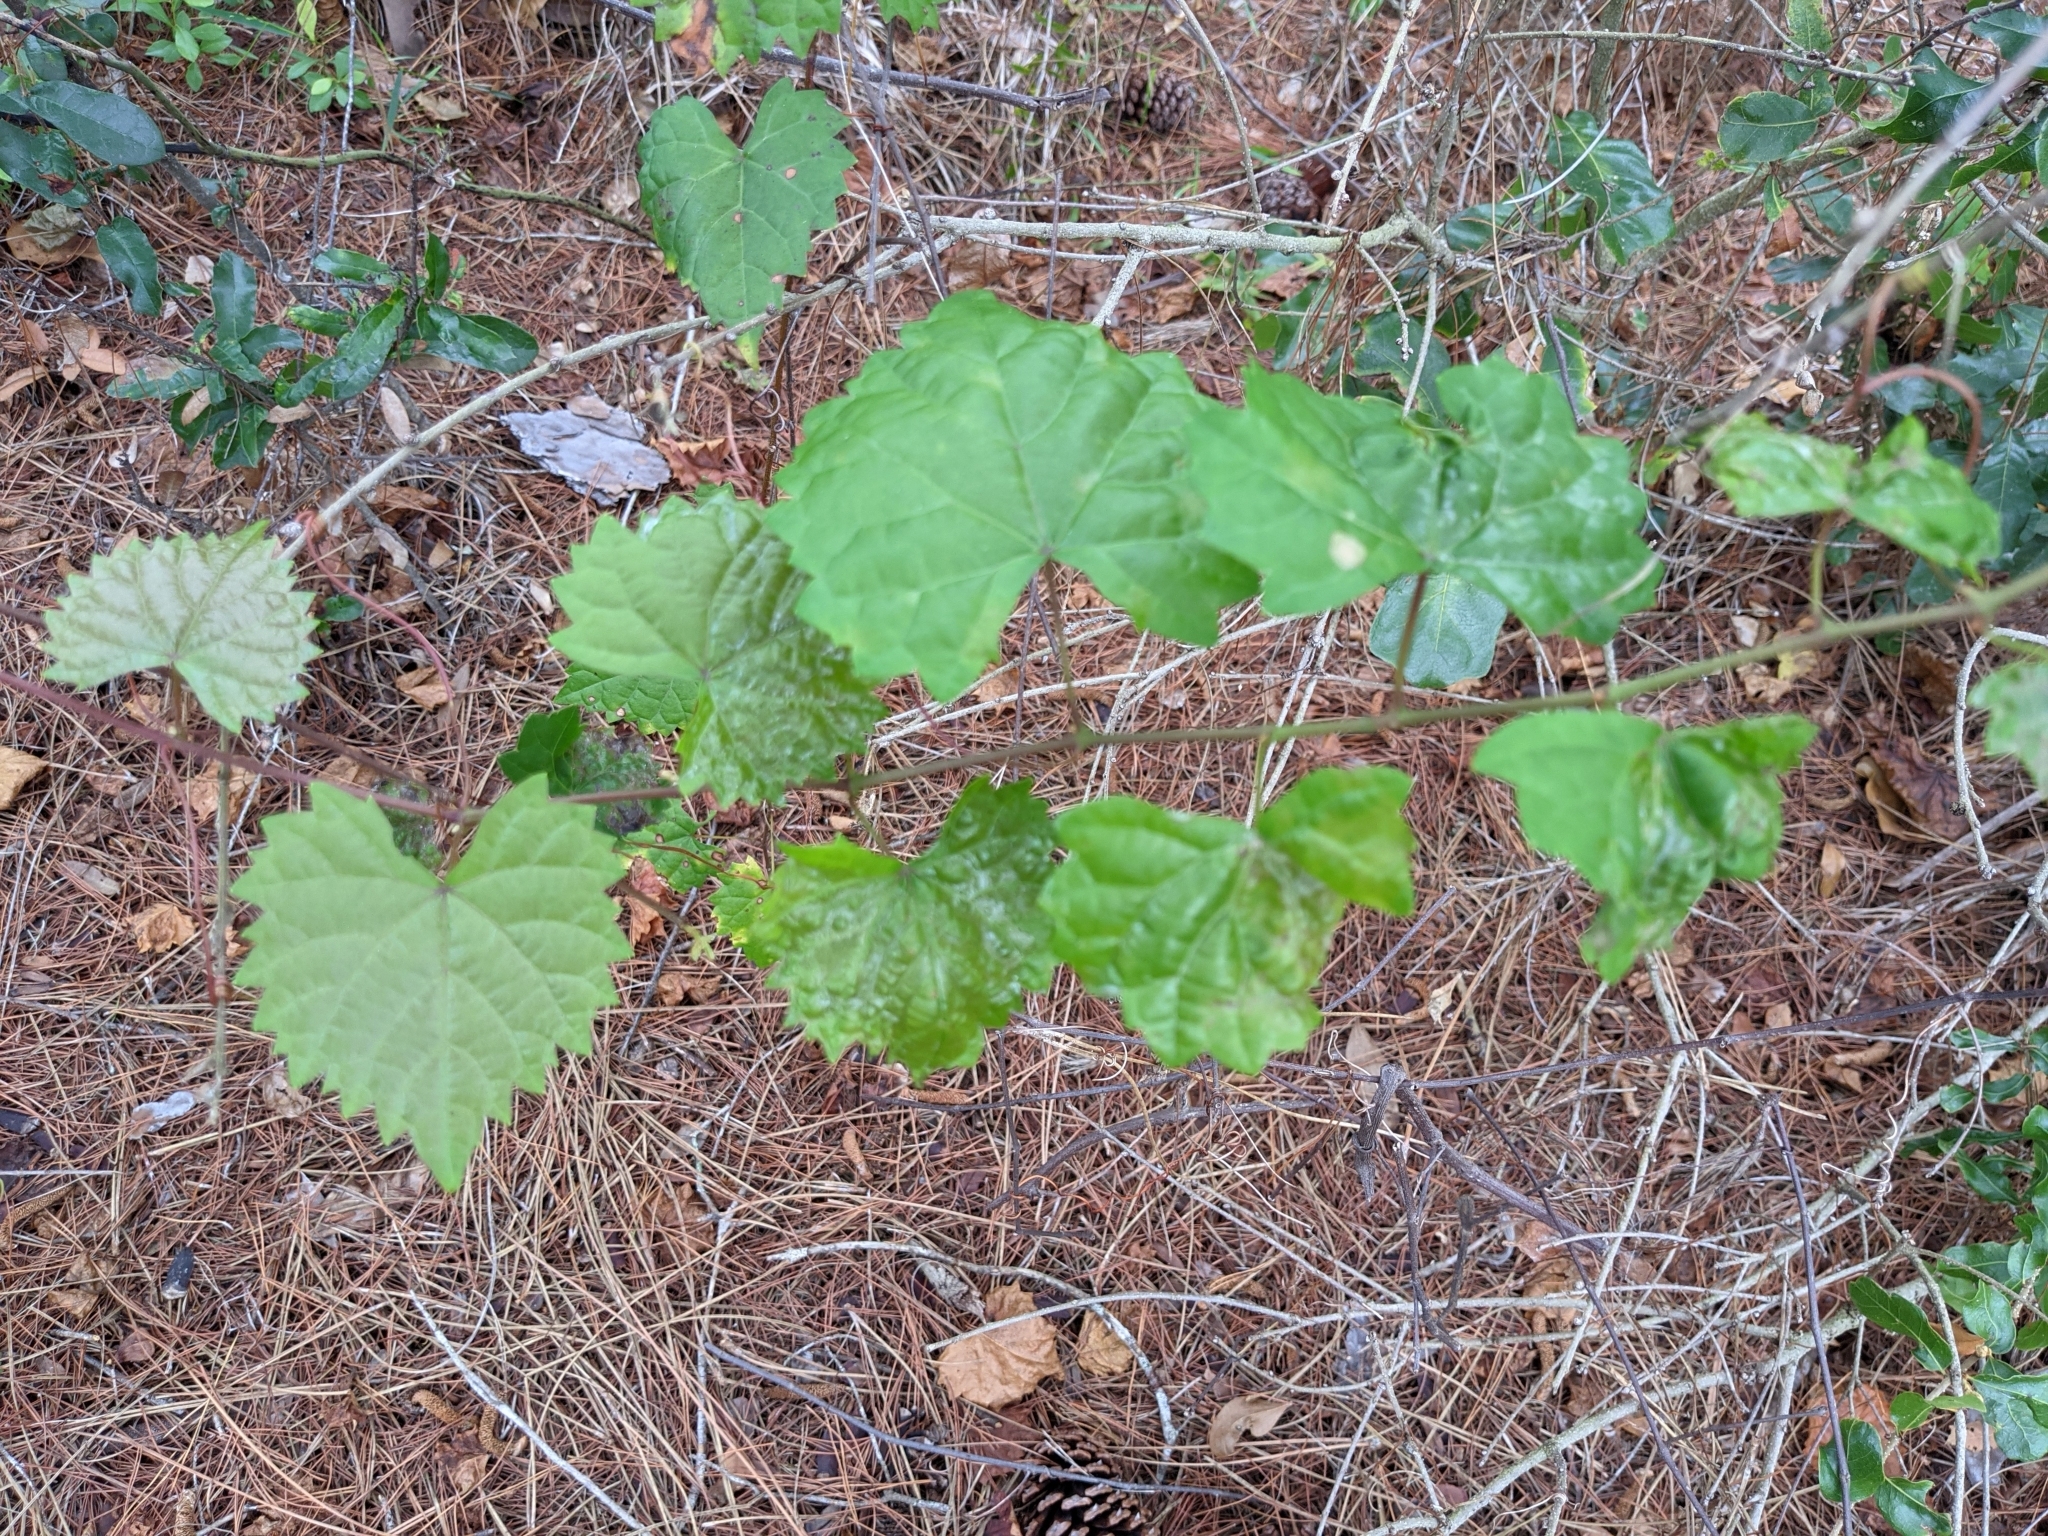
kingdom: Plantae
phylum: Tracheophyta
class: Magnoliopsida
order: Vitales
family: Vitaceae
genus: Vitis
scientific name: Vitis rotundifolia
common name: Muscadine grape
